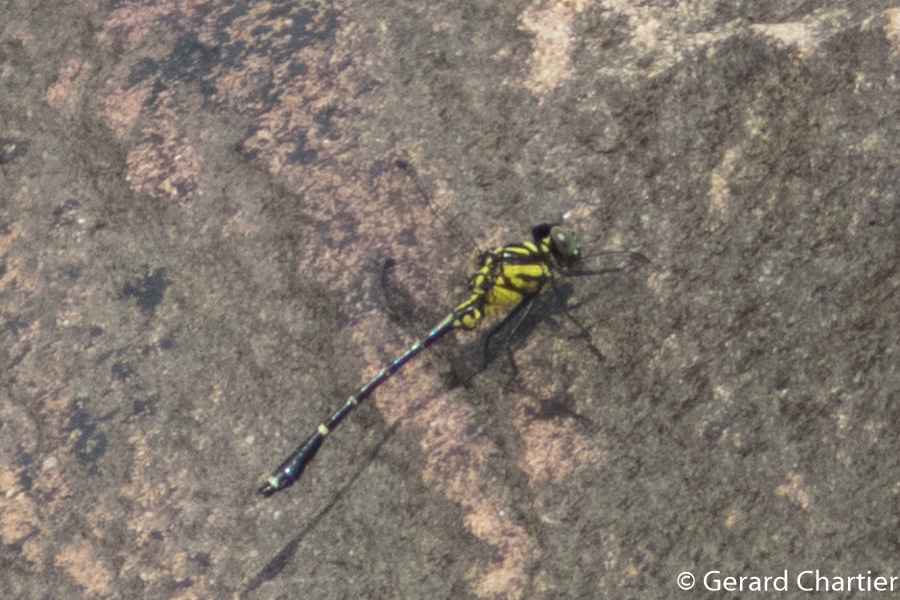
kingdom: Animalia
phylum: Arthropoda
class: Insecta
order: Odonata
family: Gomphidae
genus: Burmagomphus
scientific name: Burmagomphus divaricatus
